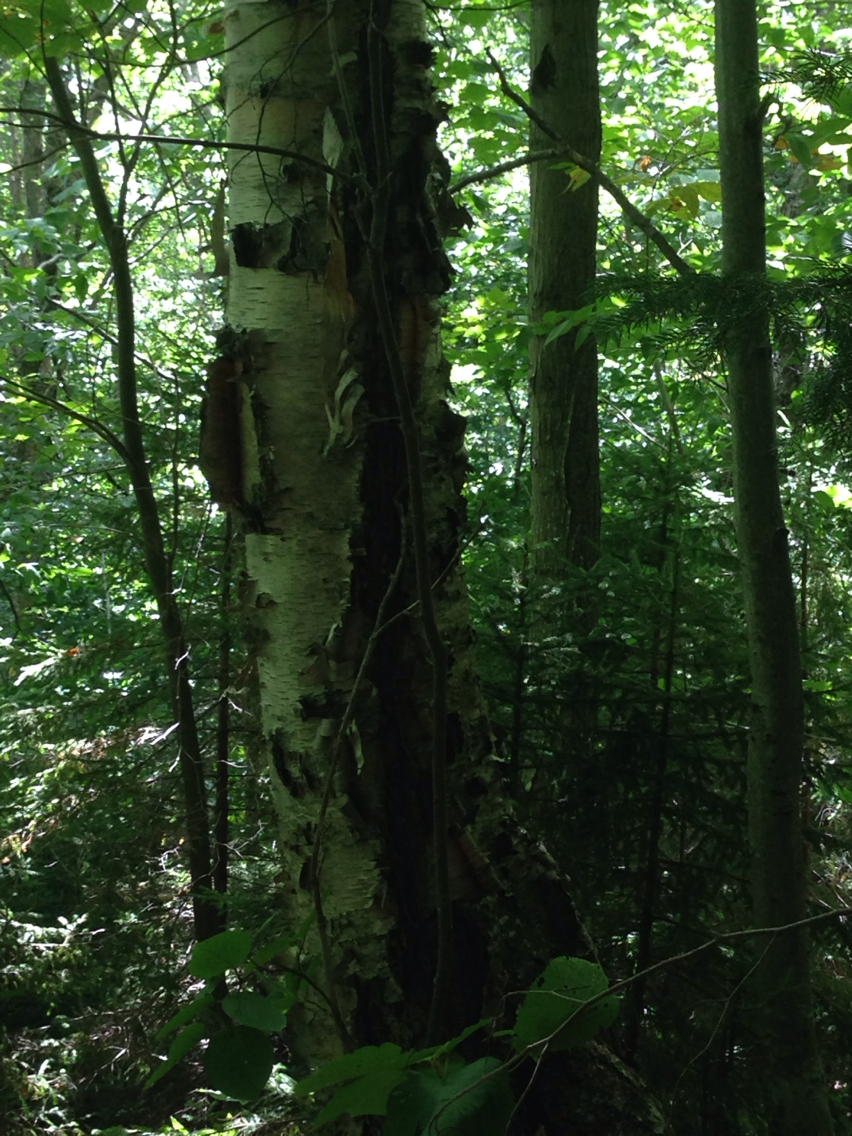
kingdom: Plantae
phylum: Tracheophyta
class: Magnoliopsida
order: Fagales
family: Betulaceae
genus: Betula
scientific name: Betula papyrifera
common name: Paper birch
